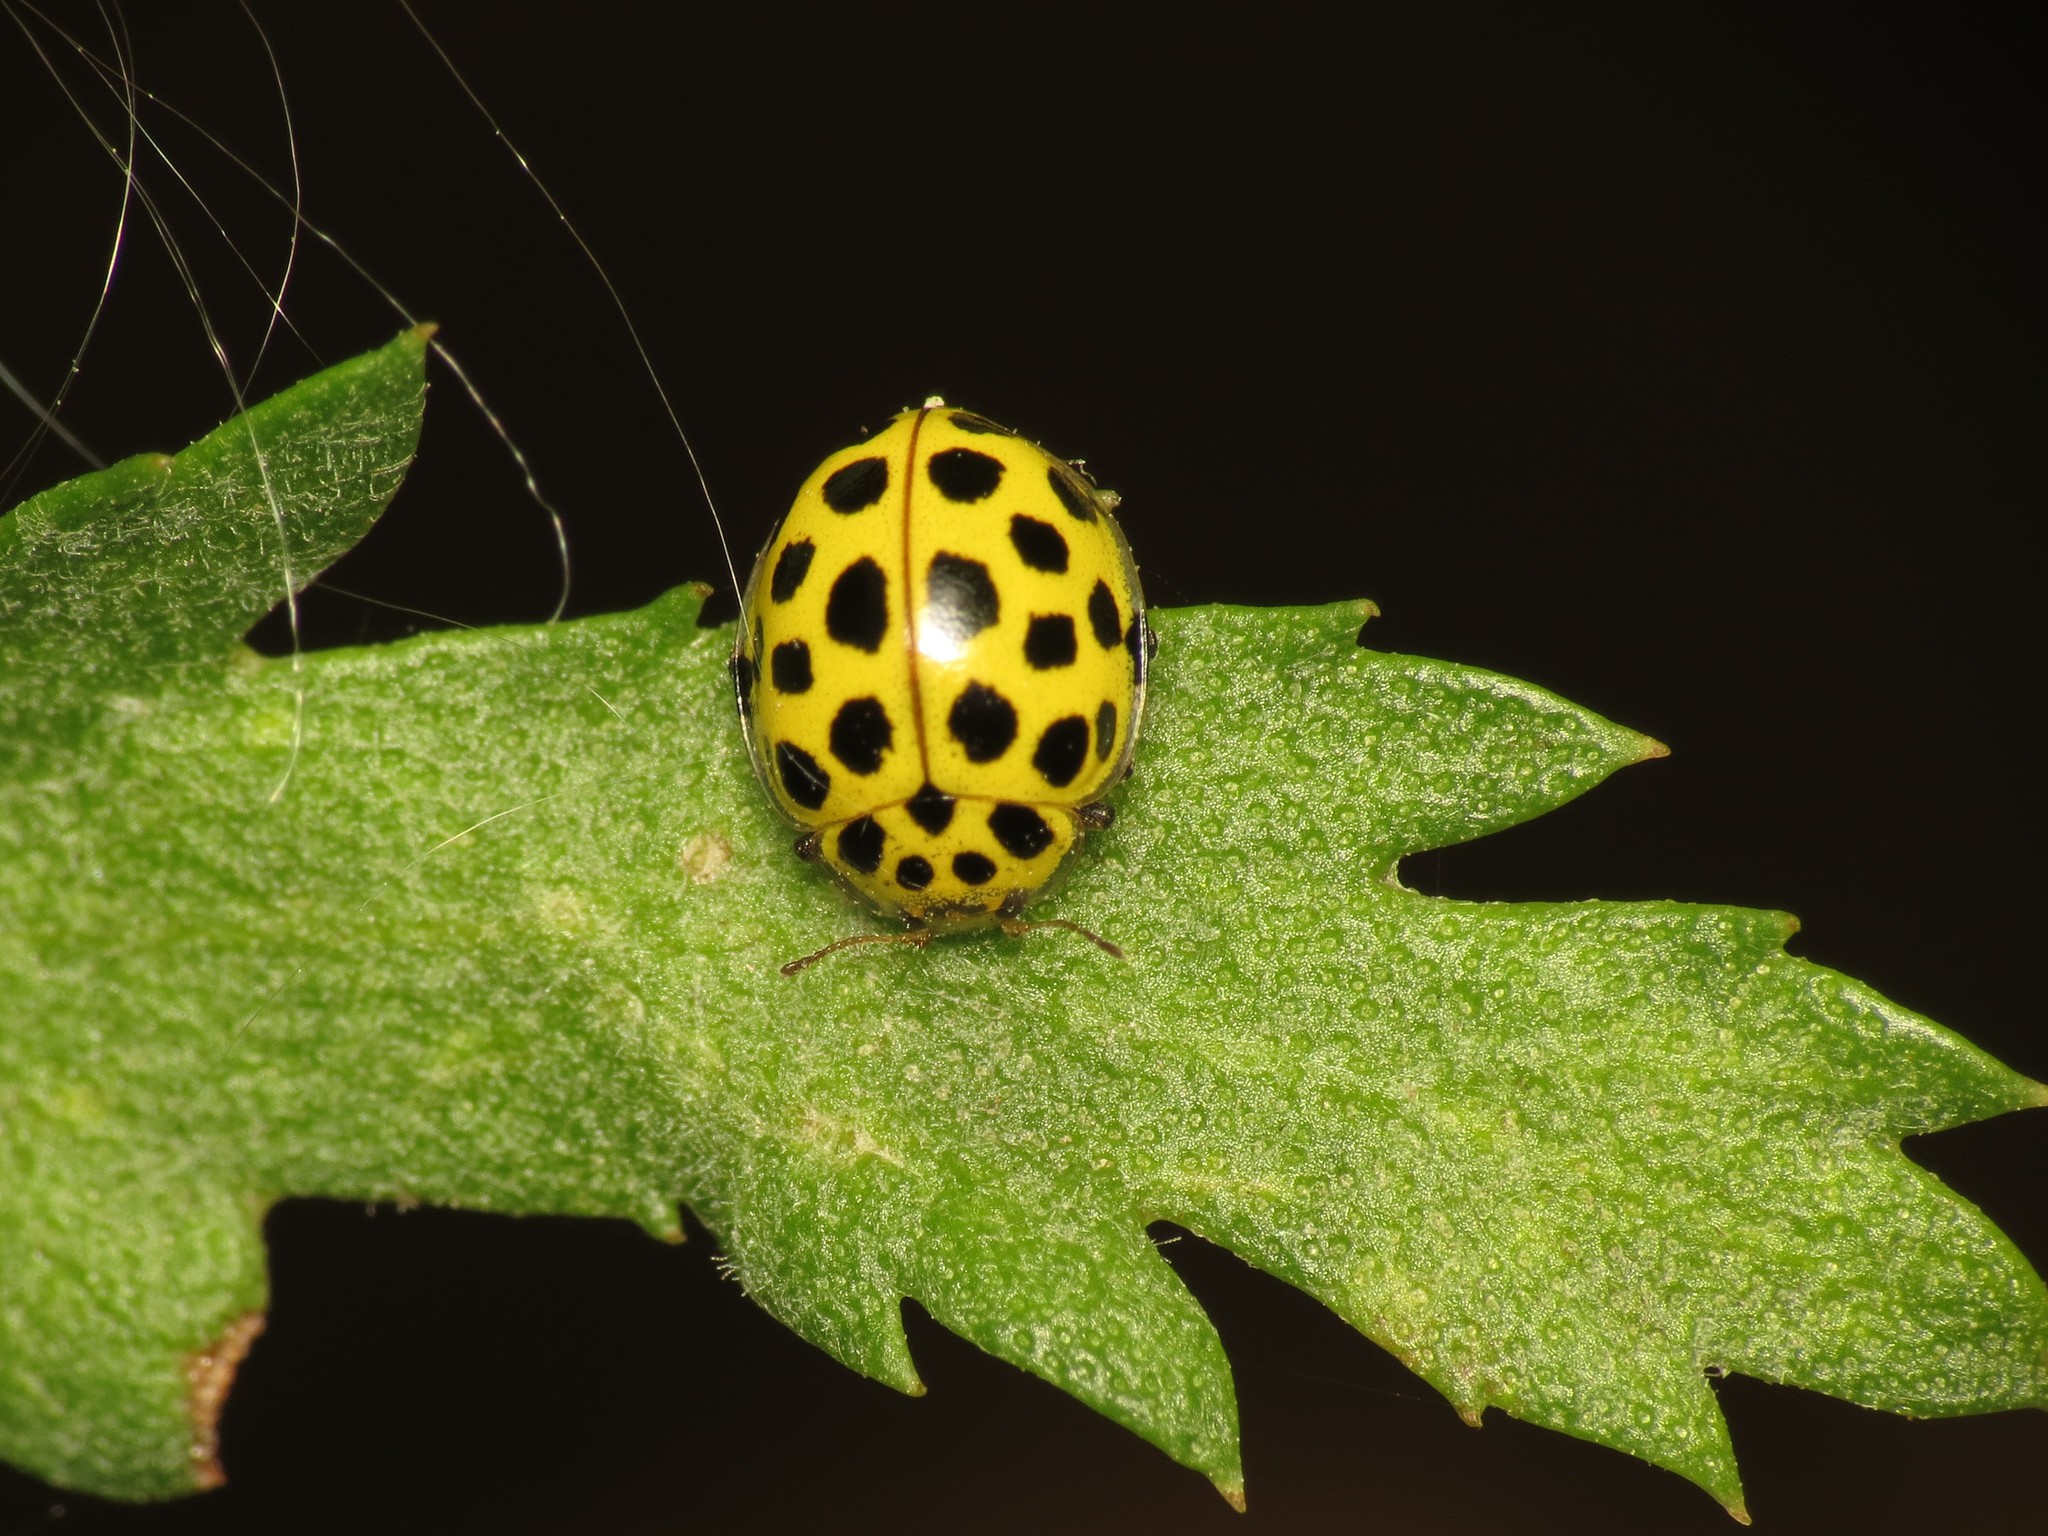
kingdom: Animalia
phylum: Arthropoda
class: Insecta
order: Coleoptera
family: Coccinellidae
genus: Psyllobora
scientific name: Psyllobora vigintiduopunctata
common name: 22-spot ladybird
